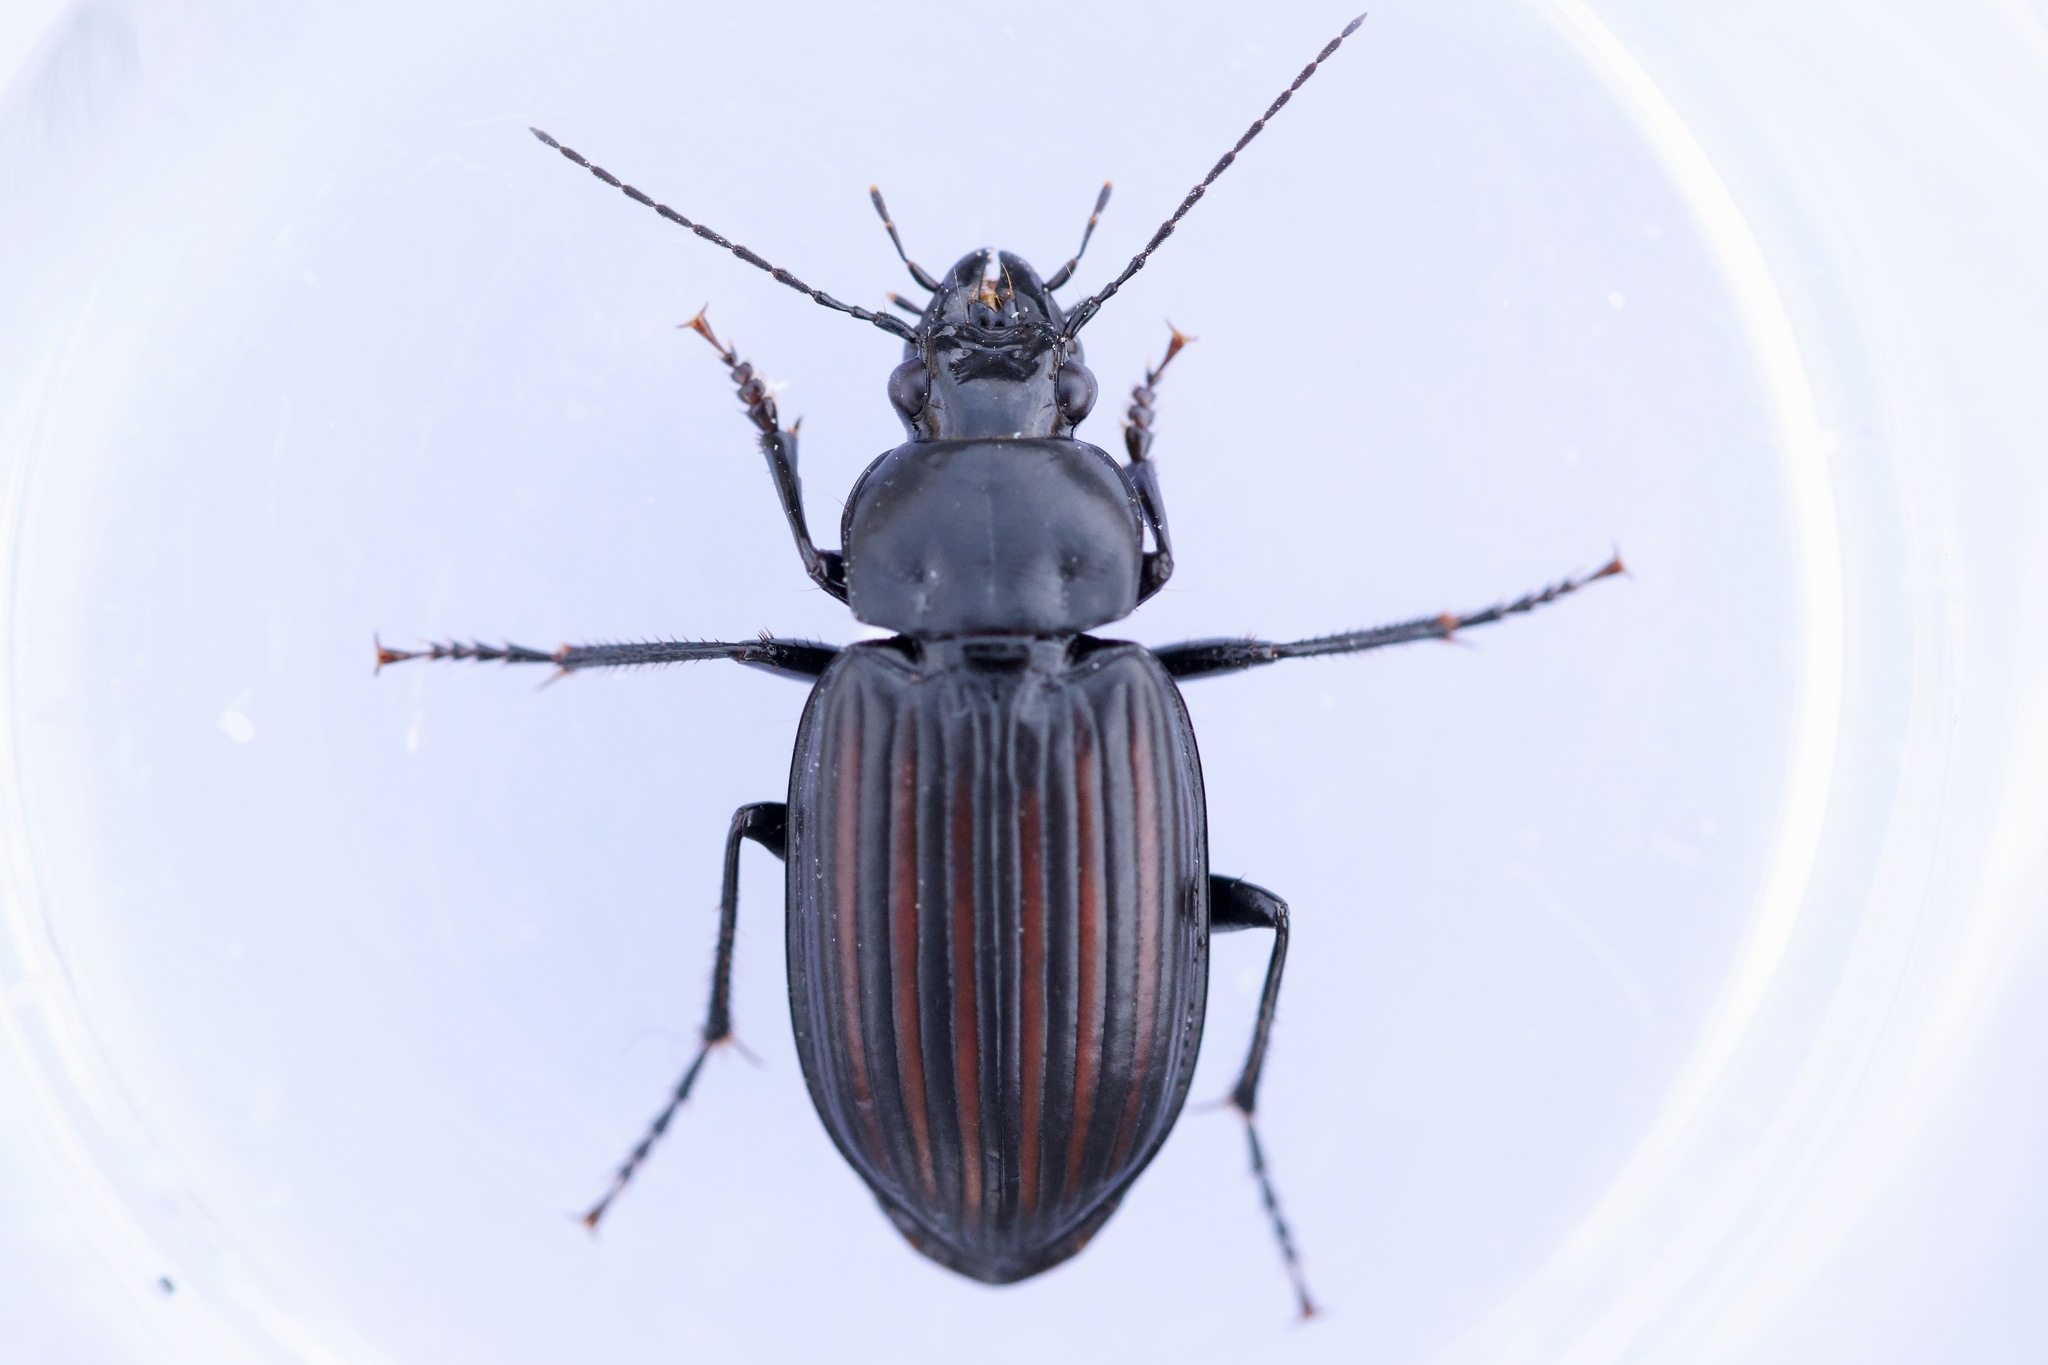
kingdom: Animalia
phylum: Arthropoda
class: Insecta
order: Coleoptera
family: Carabidae
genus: Diplocheila
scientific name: Diplocheila striatopunctata
